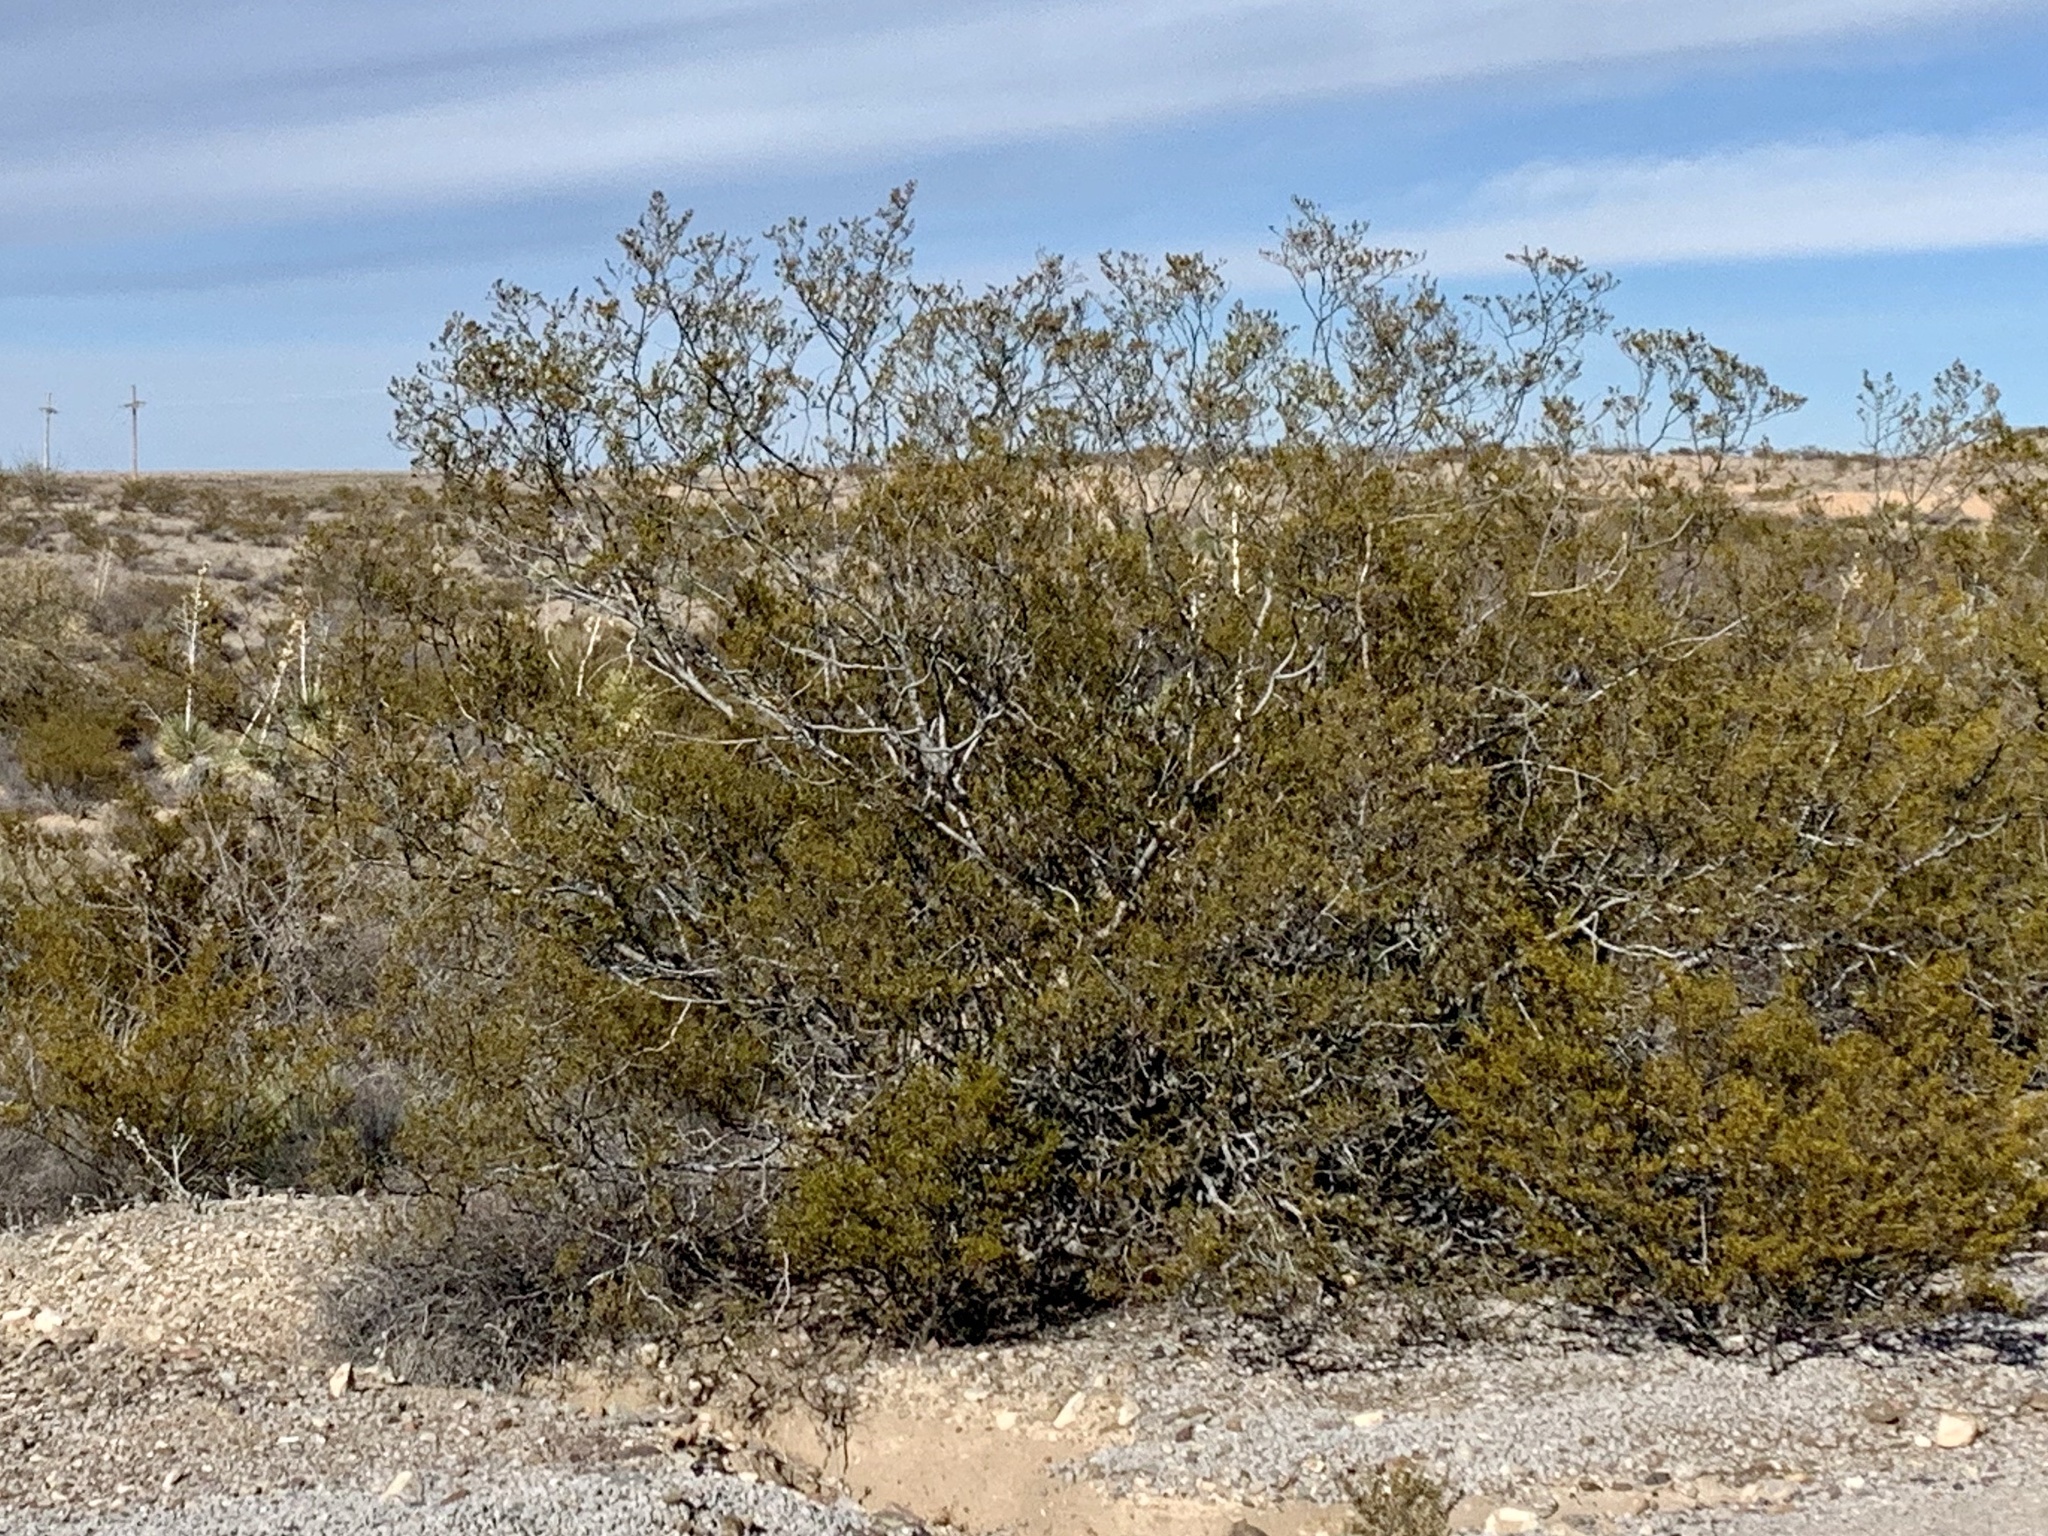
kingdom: Plantae
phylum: Tracheophyta
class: Magnoliopsida
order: Zygophyllales
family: Zygophyllaceae
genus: Larrea
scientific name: Larrea tridentata
